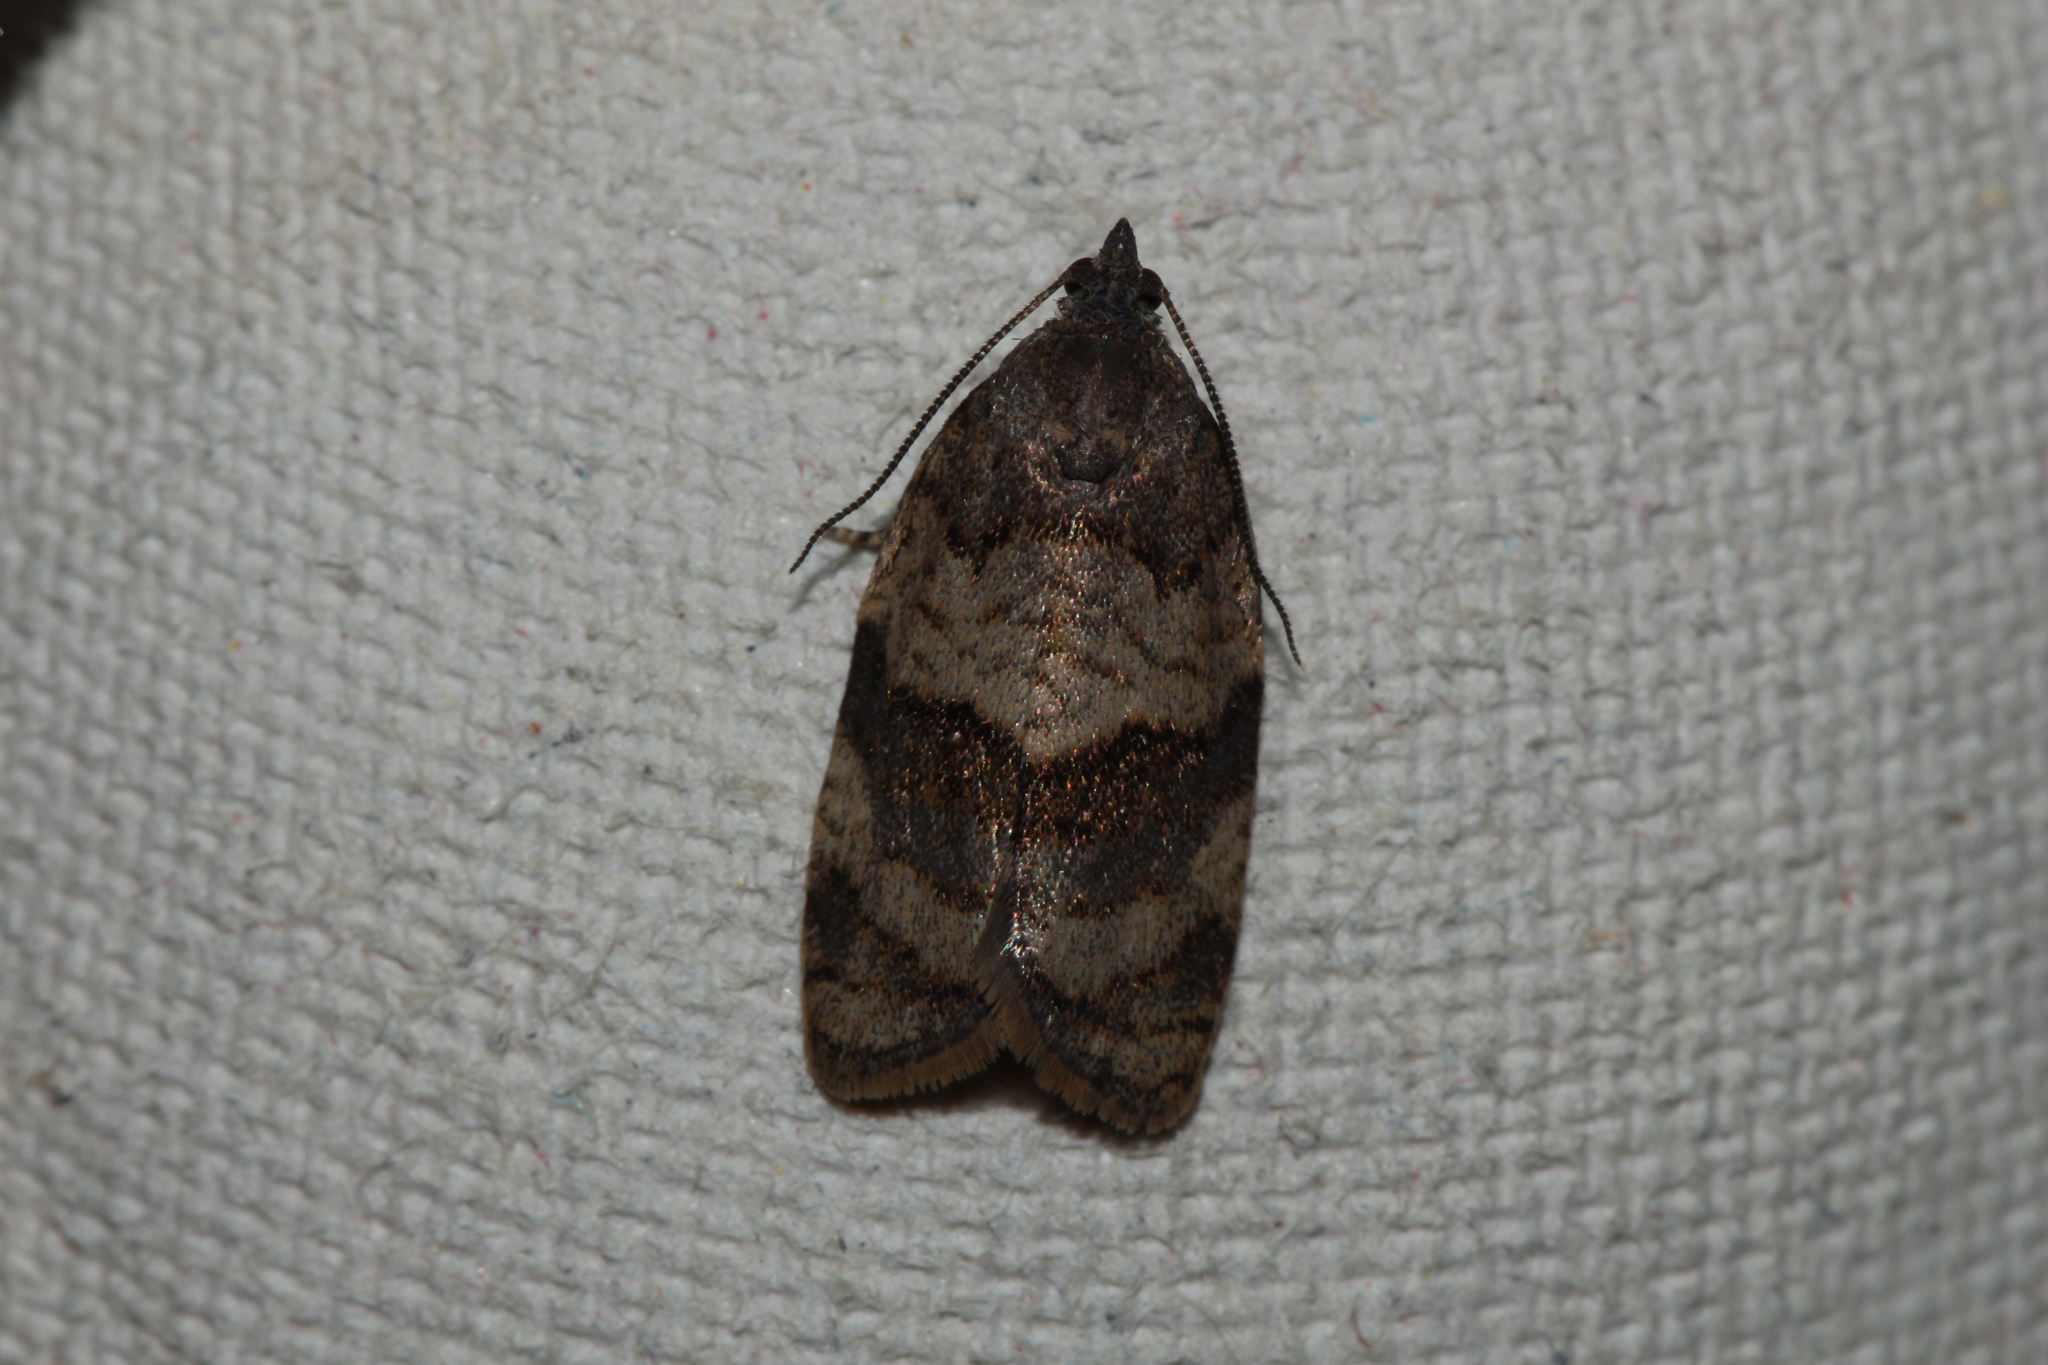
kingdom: Animalia
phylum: Arthropoda
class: Insecta
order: Lepidoptera
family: Tortricidae
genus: Syndemis
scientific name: Syndemis musculana
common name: Dark-barred twist
